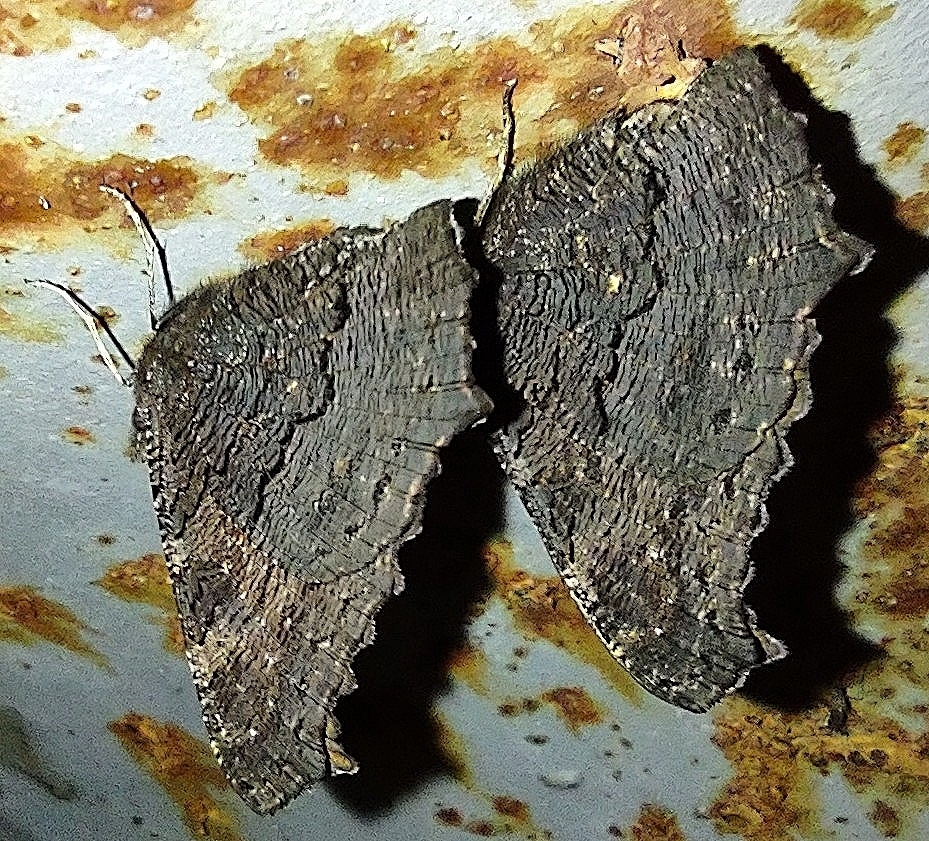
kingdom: Animalia
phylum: Arthropoda
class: Insecta
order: Lepidoptera
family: Nymphalidae
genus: Aglais
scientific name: Aglais io
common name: Peacock
